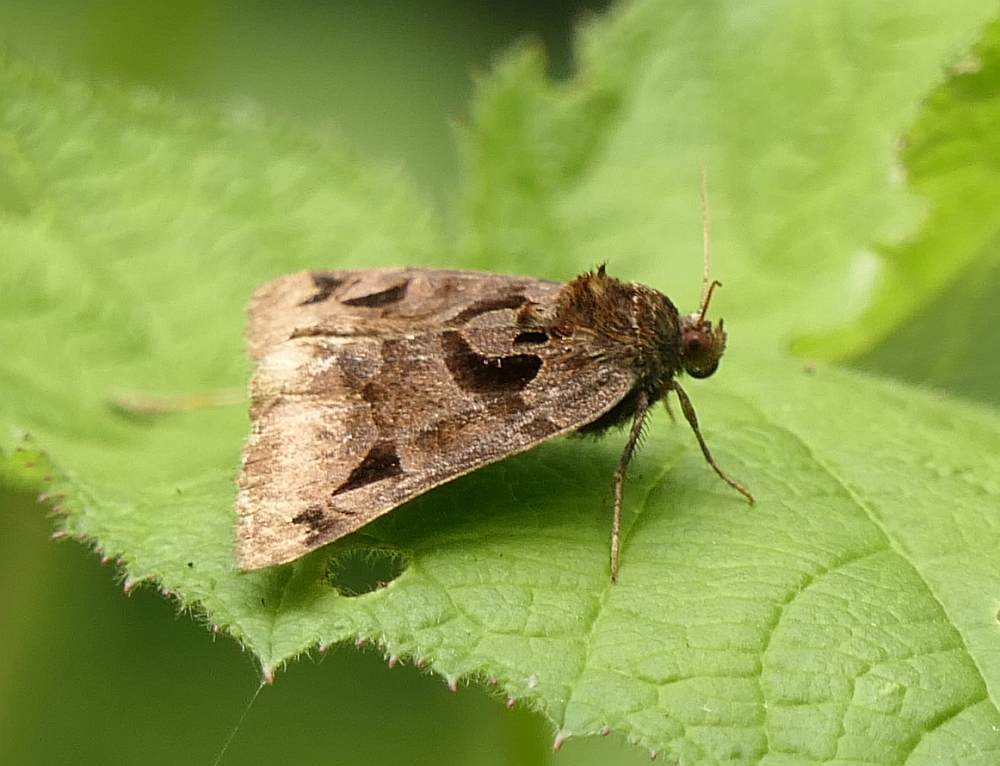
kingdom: Animalia
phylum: Arthropoda
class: Insecta
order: Lepidoptera
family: Erebidae
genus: Euclidia
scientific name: Euclidia cuspidea
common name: Toothed somberwing
